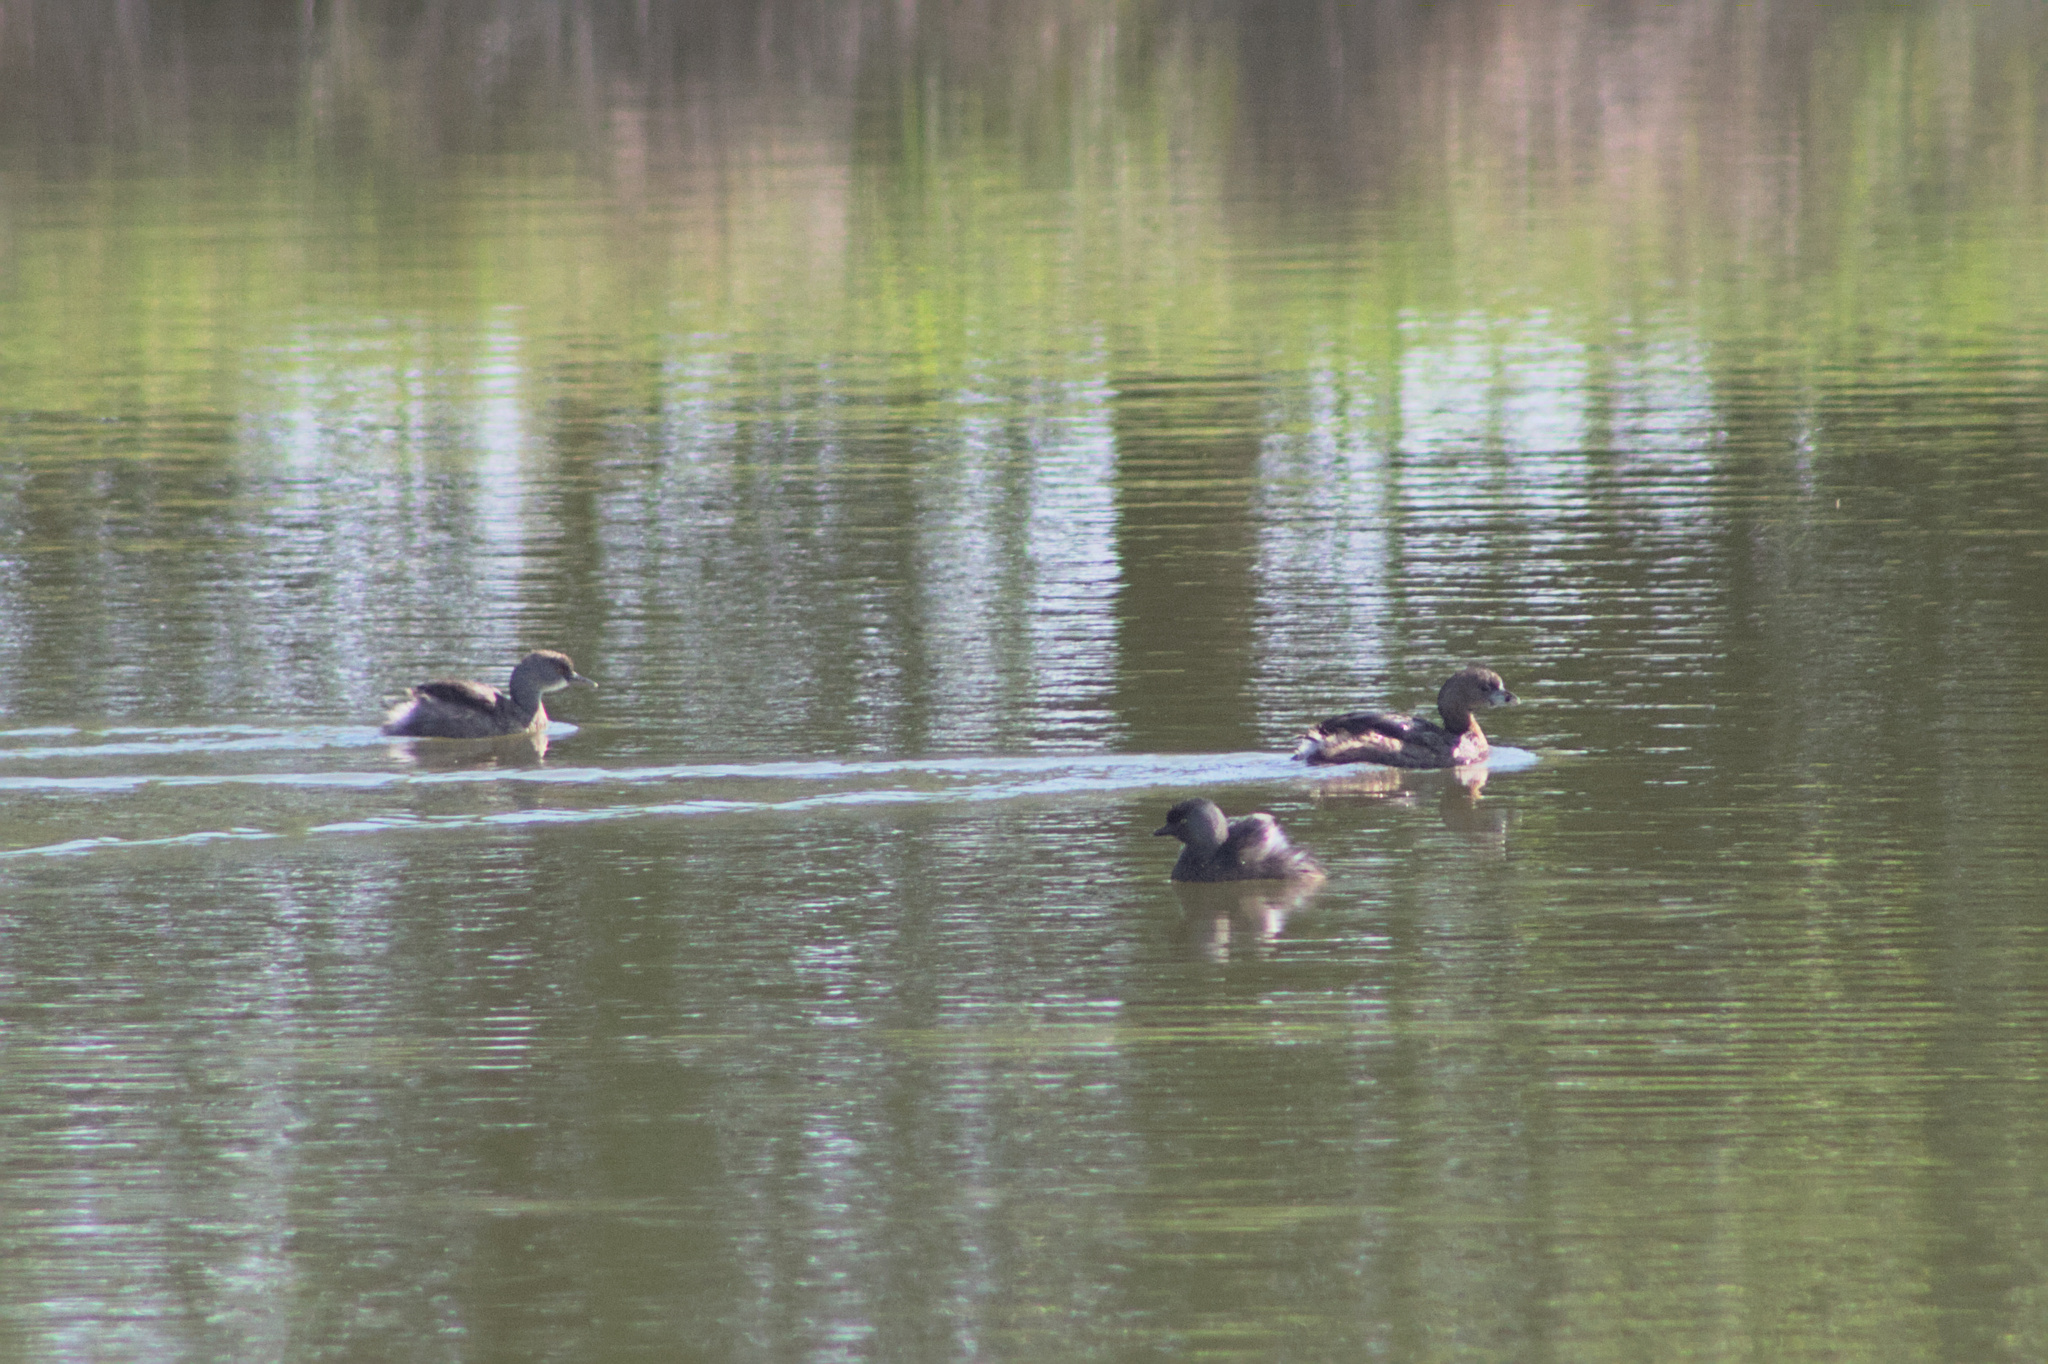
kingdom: Animalia
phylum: Chordata
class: Aves
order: Podicipediformes
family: Podicipedidae
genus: Tachybaptus
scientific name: Tachybaptus dominicus
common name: Least grebe
